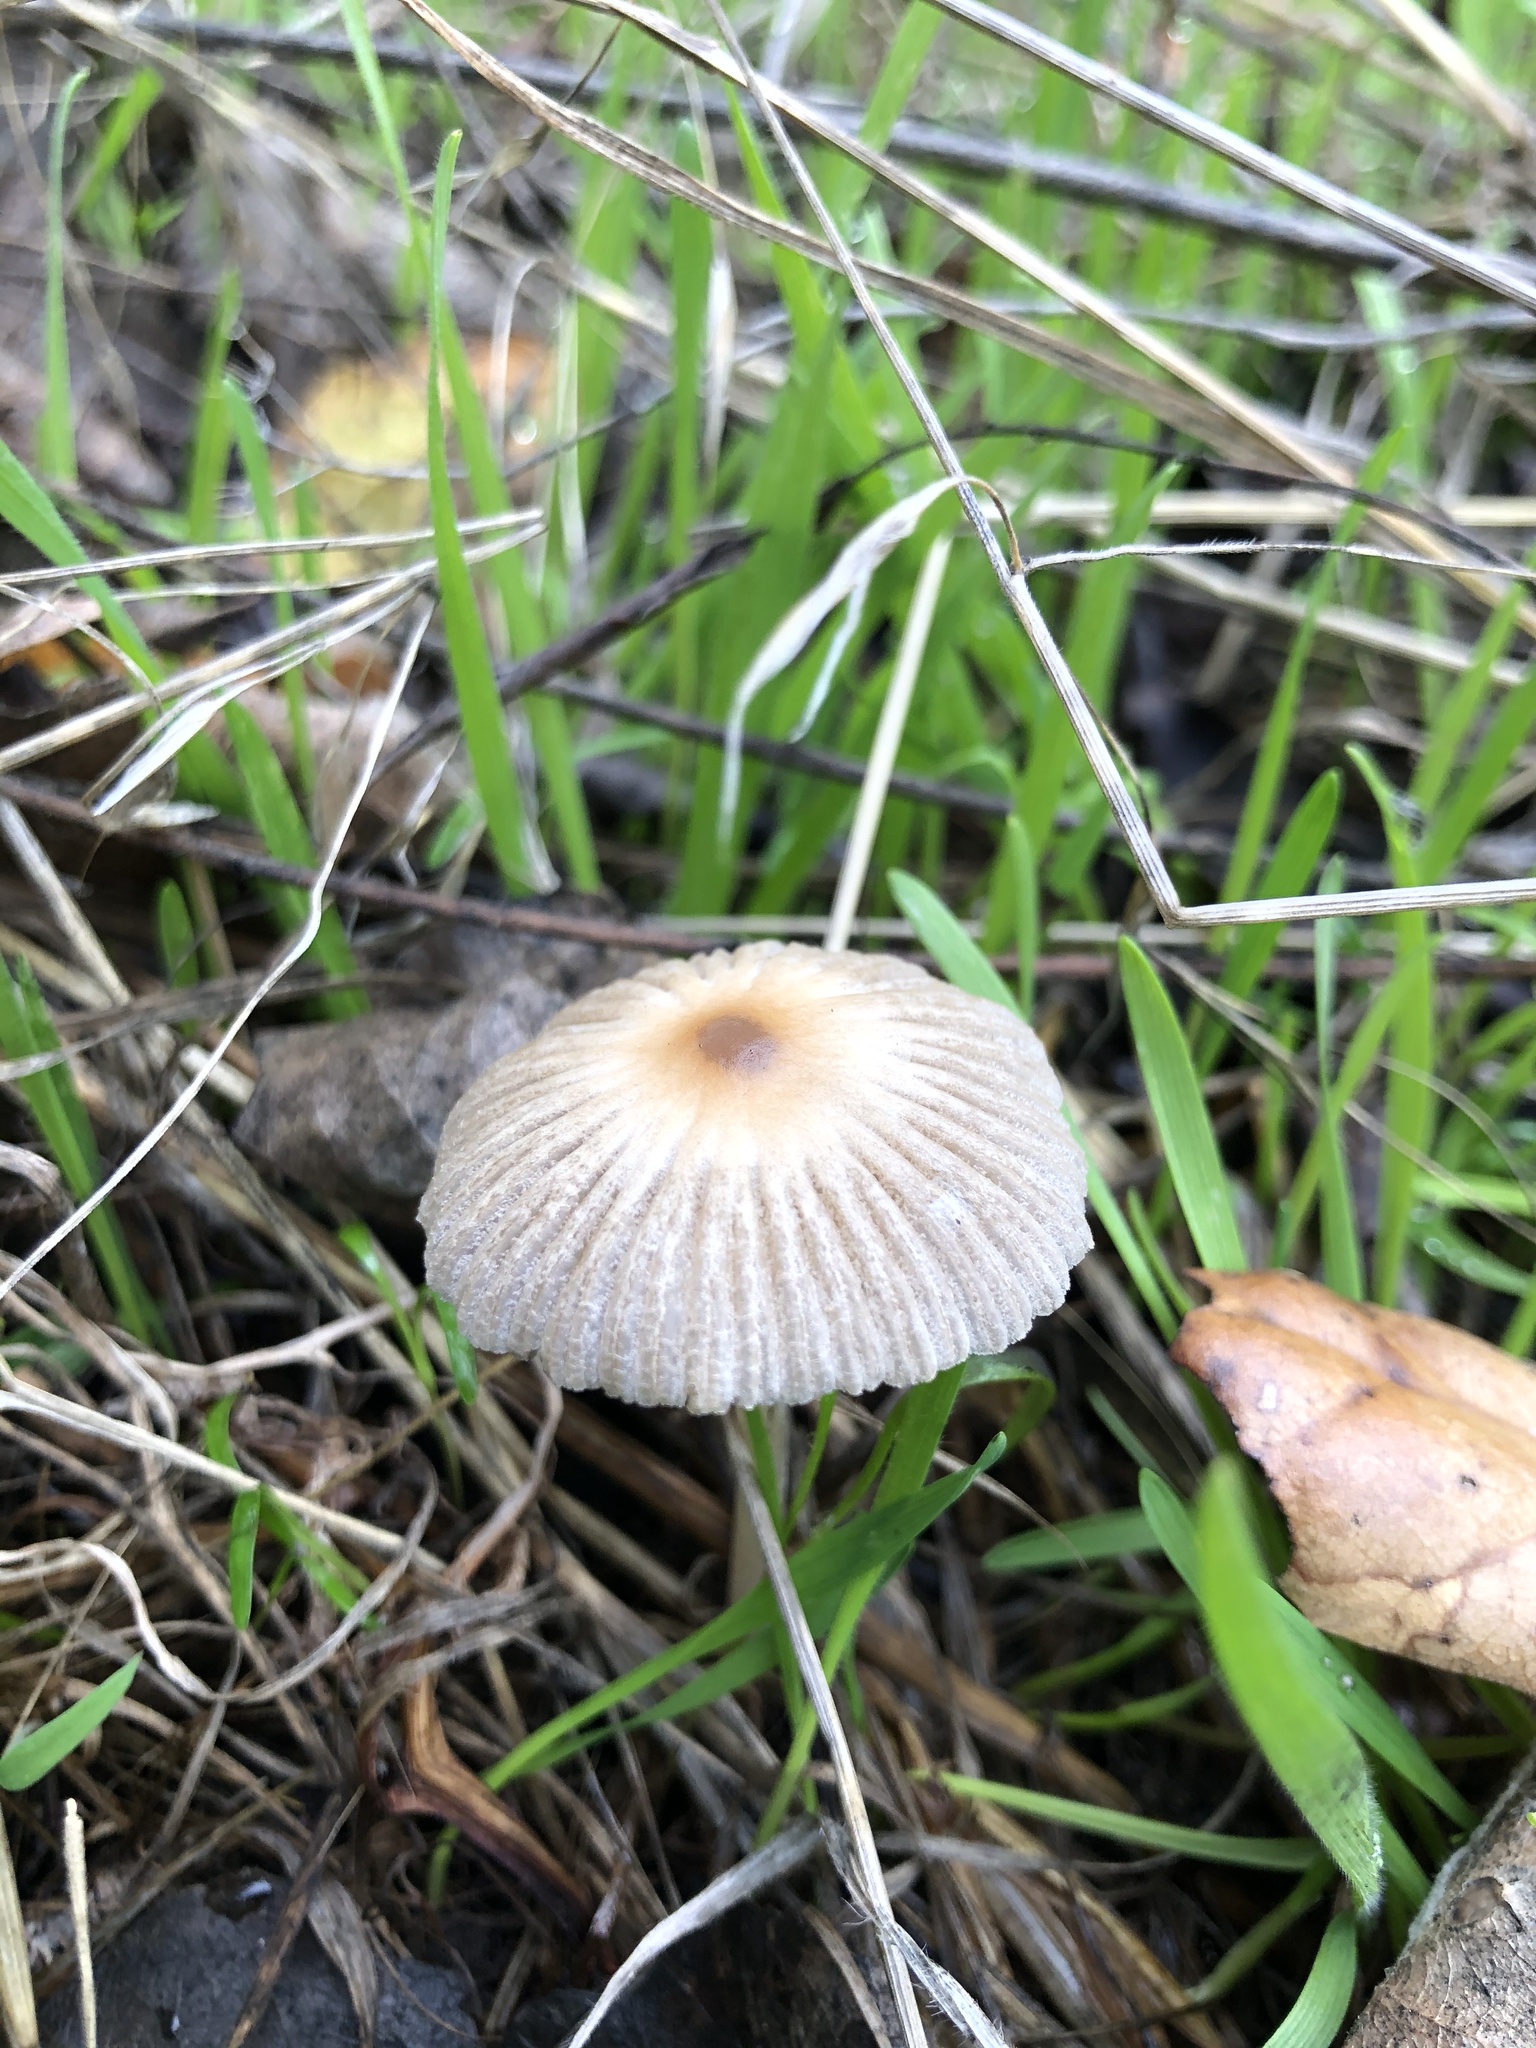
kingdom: Fungi
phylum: Basidiomycota
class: Agaricomycetes
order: Agaricales
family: Psathyrellaceae
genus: Tulosesus
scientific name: Tulosesus impatiens
